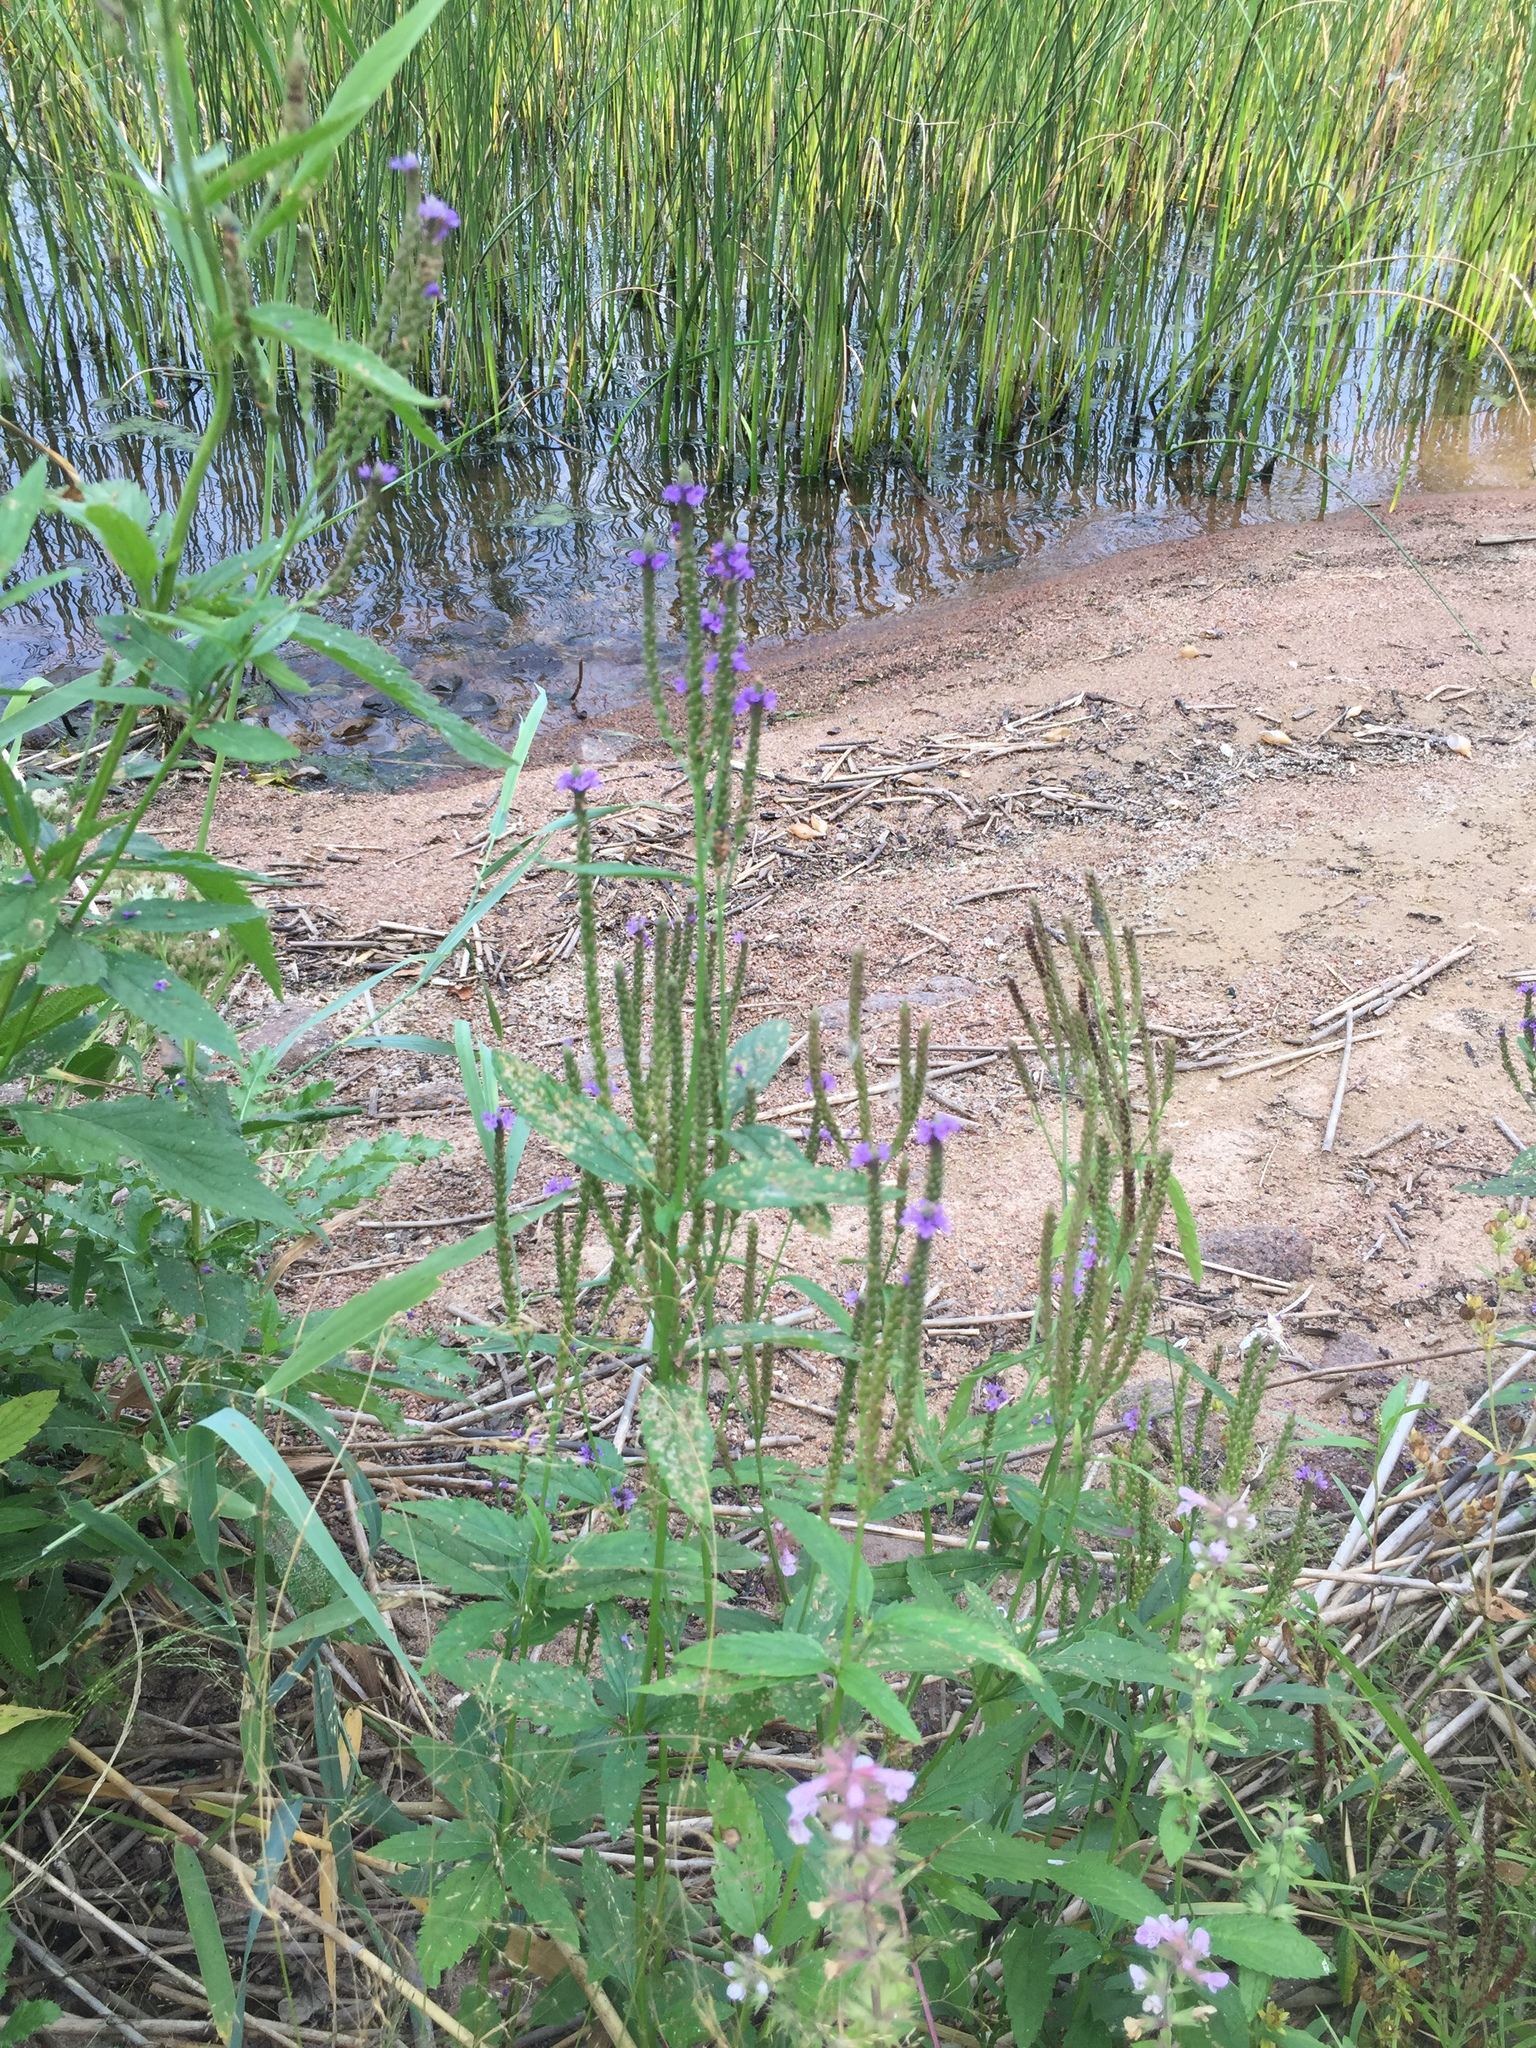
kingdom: Plantae
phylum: Tracheophyta
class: Magnoliopsida
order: Lamiales
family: Verbenaceae
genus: Verbena
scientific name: Verbena hastata
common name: American blue vervain
